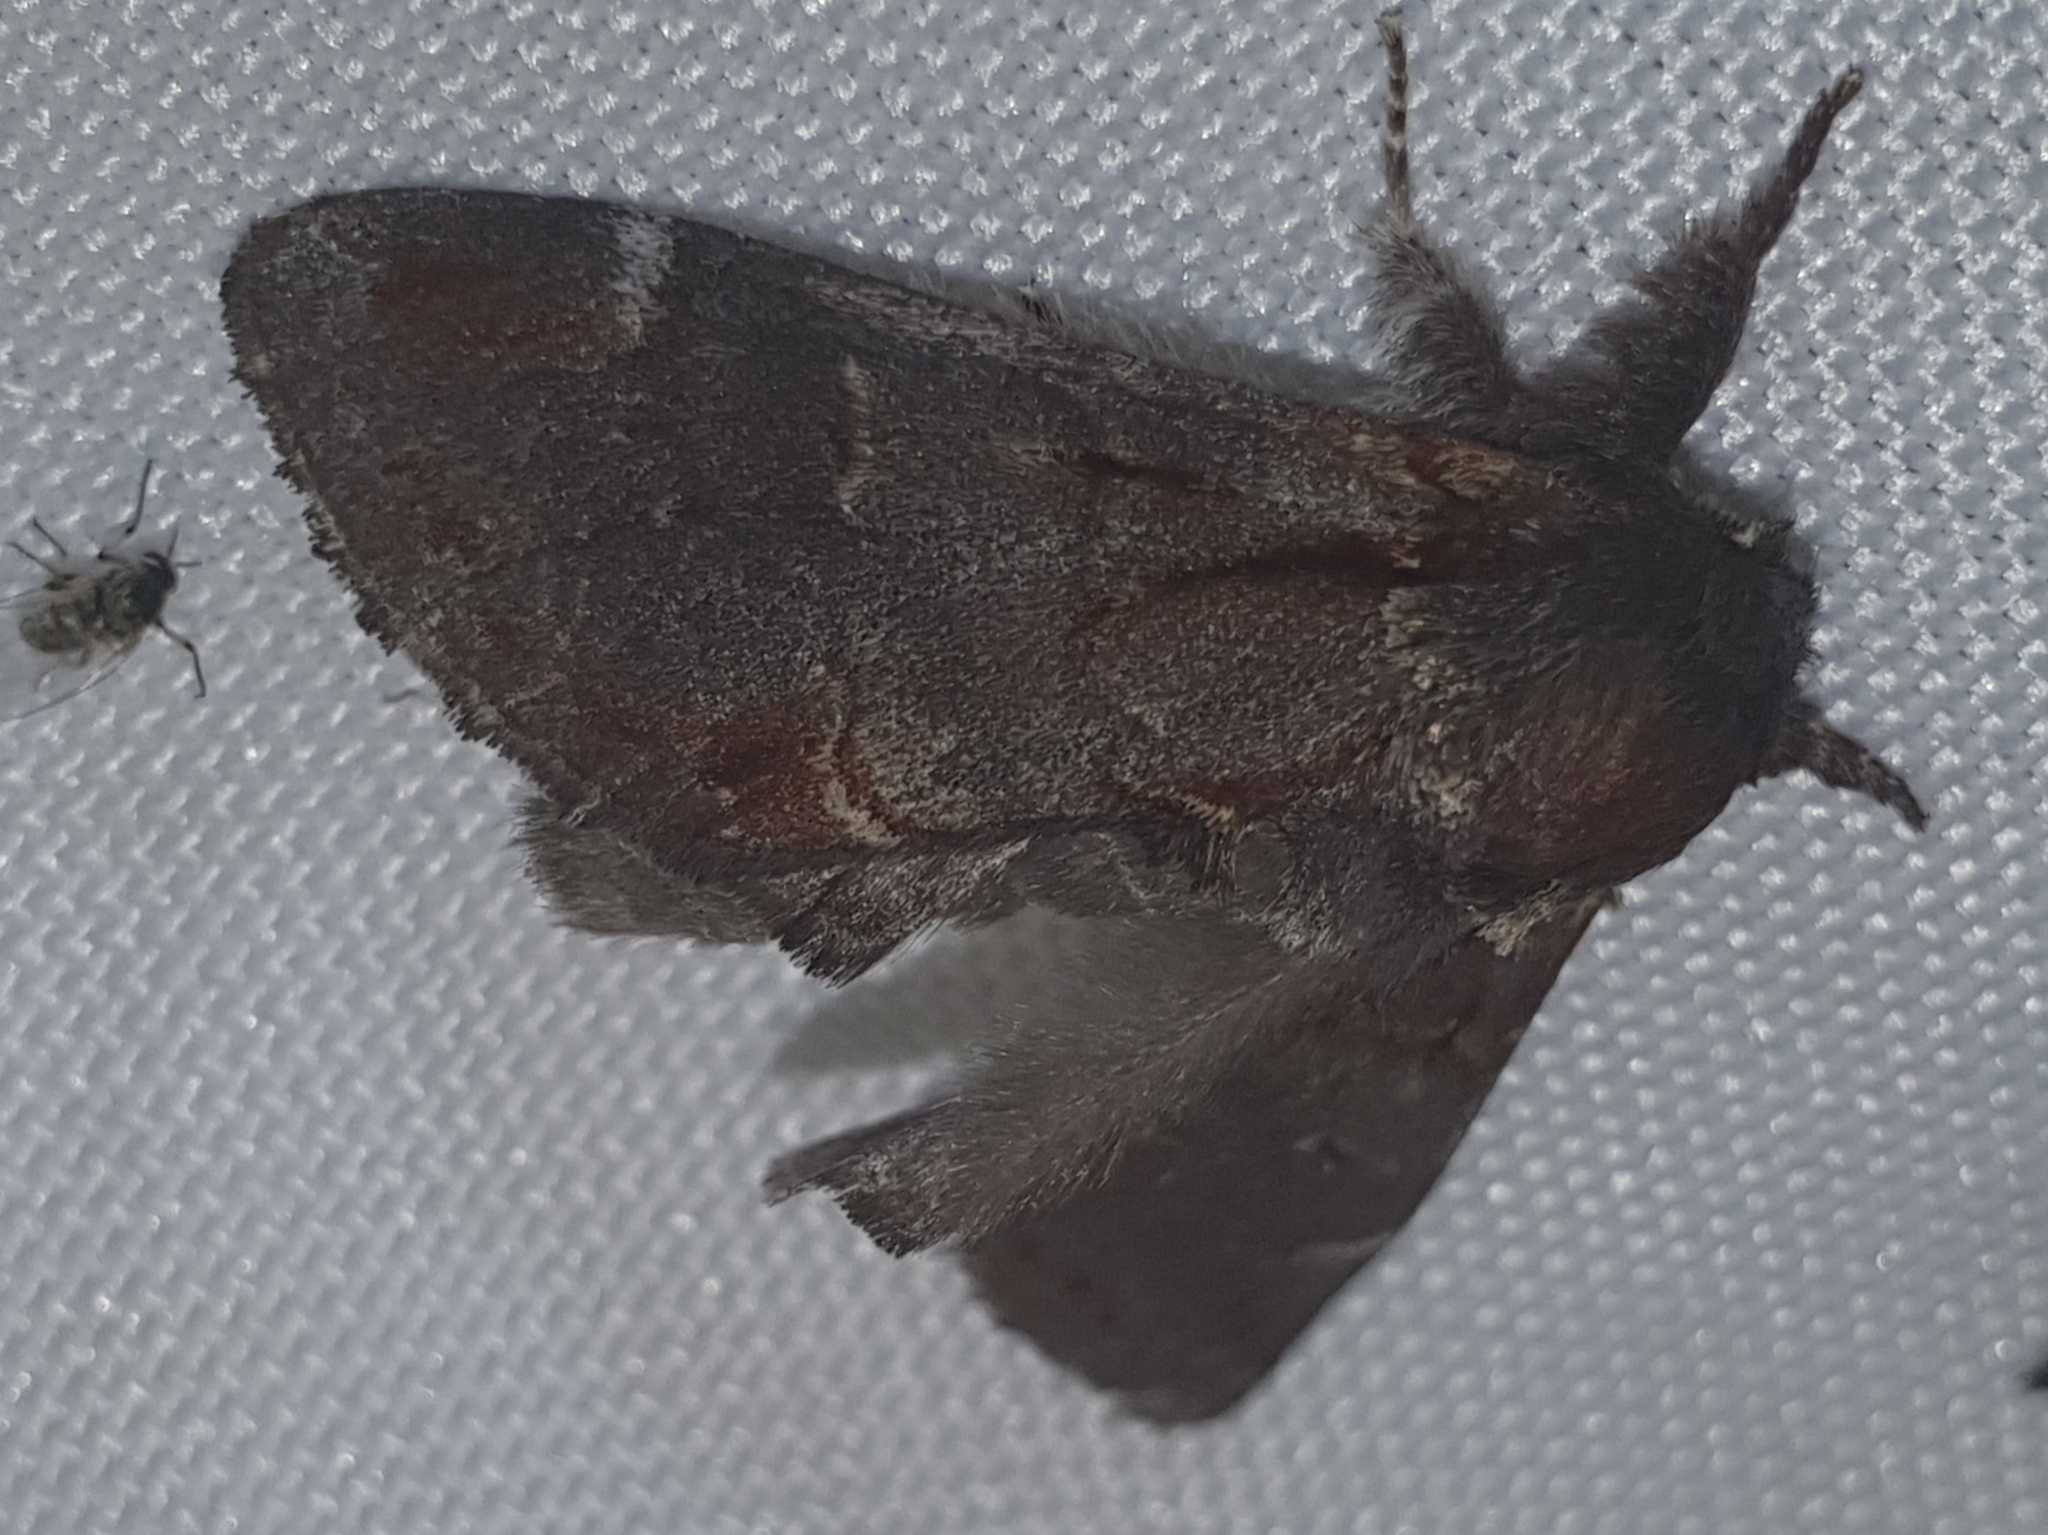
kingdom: Animalia
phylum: Arthropoda
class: Insecta
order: Lepidoptera
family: Notodontidae
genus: Notodonta
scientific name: Notodonta dromedarius
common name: Iron prominent
